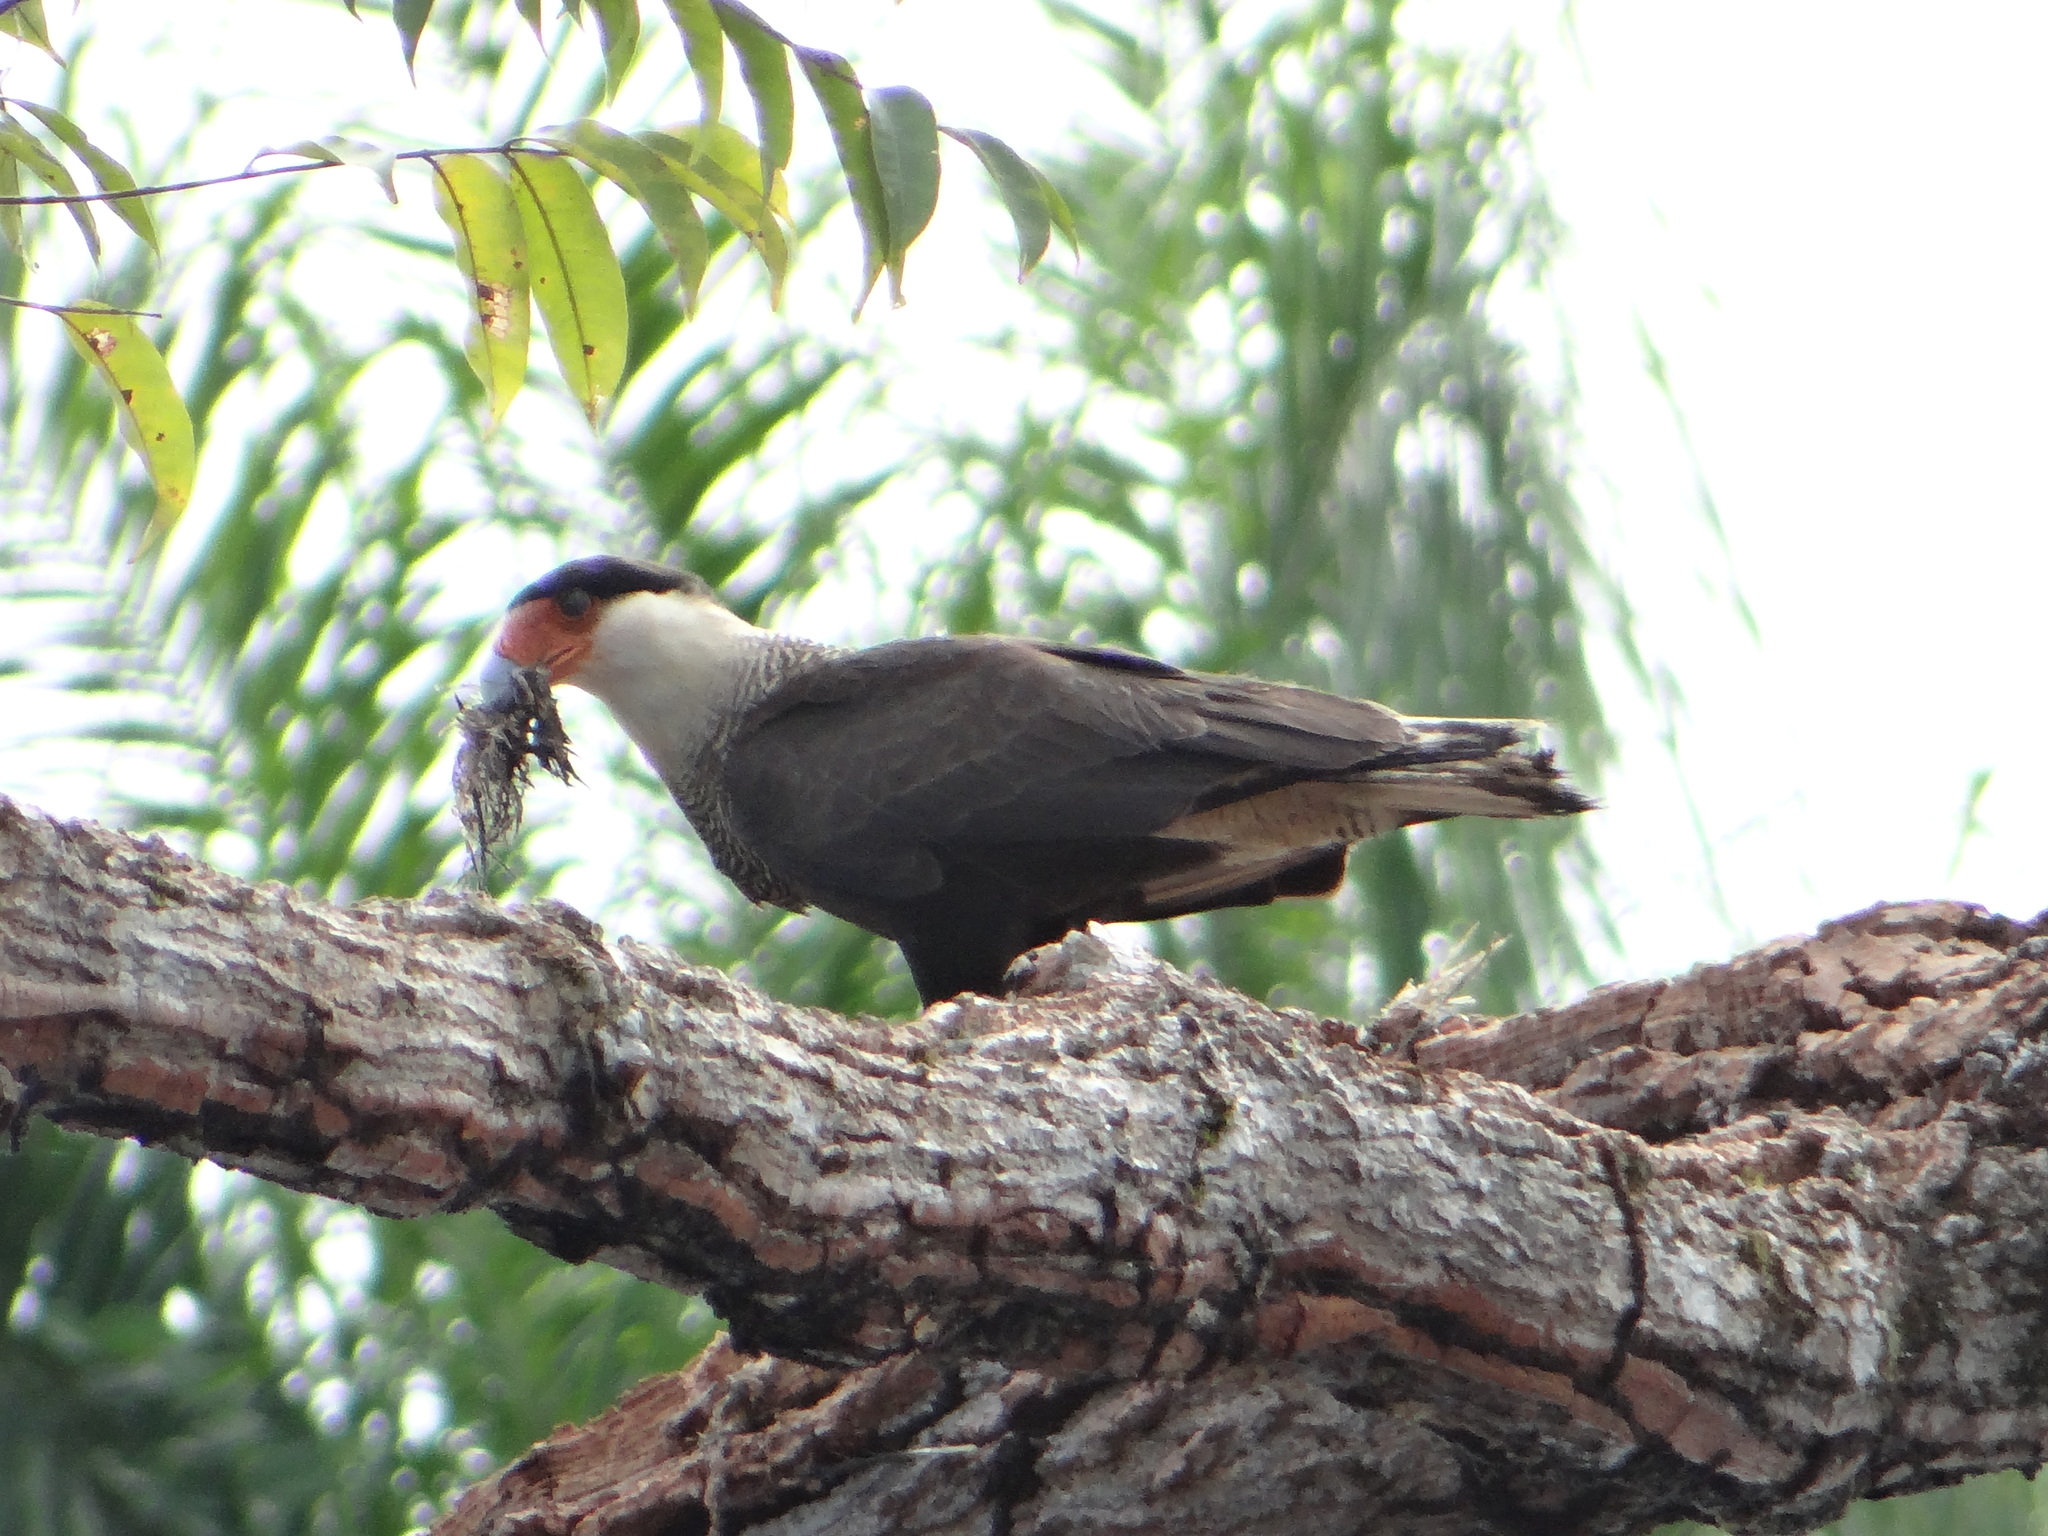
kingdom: Animalia
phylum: Chordata
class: Aves
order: Falconiformes
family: Falconidae
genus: Caracara
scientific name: Caracara plancus
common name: Southern caracara
